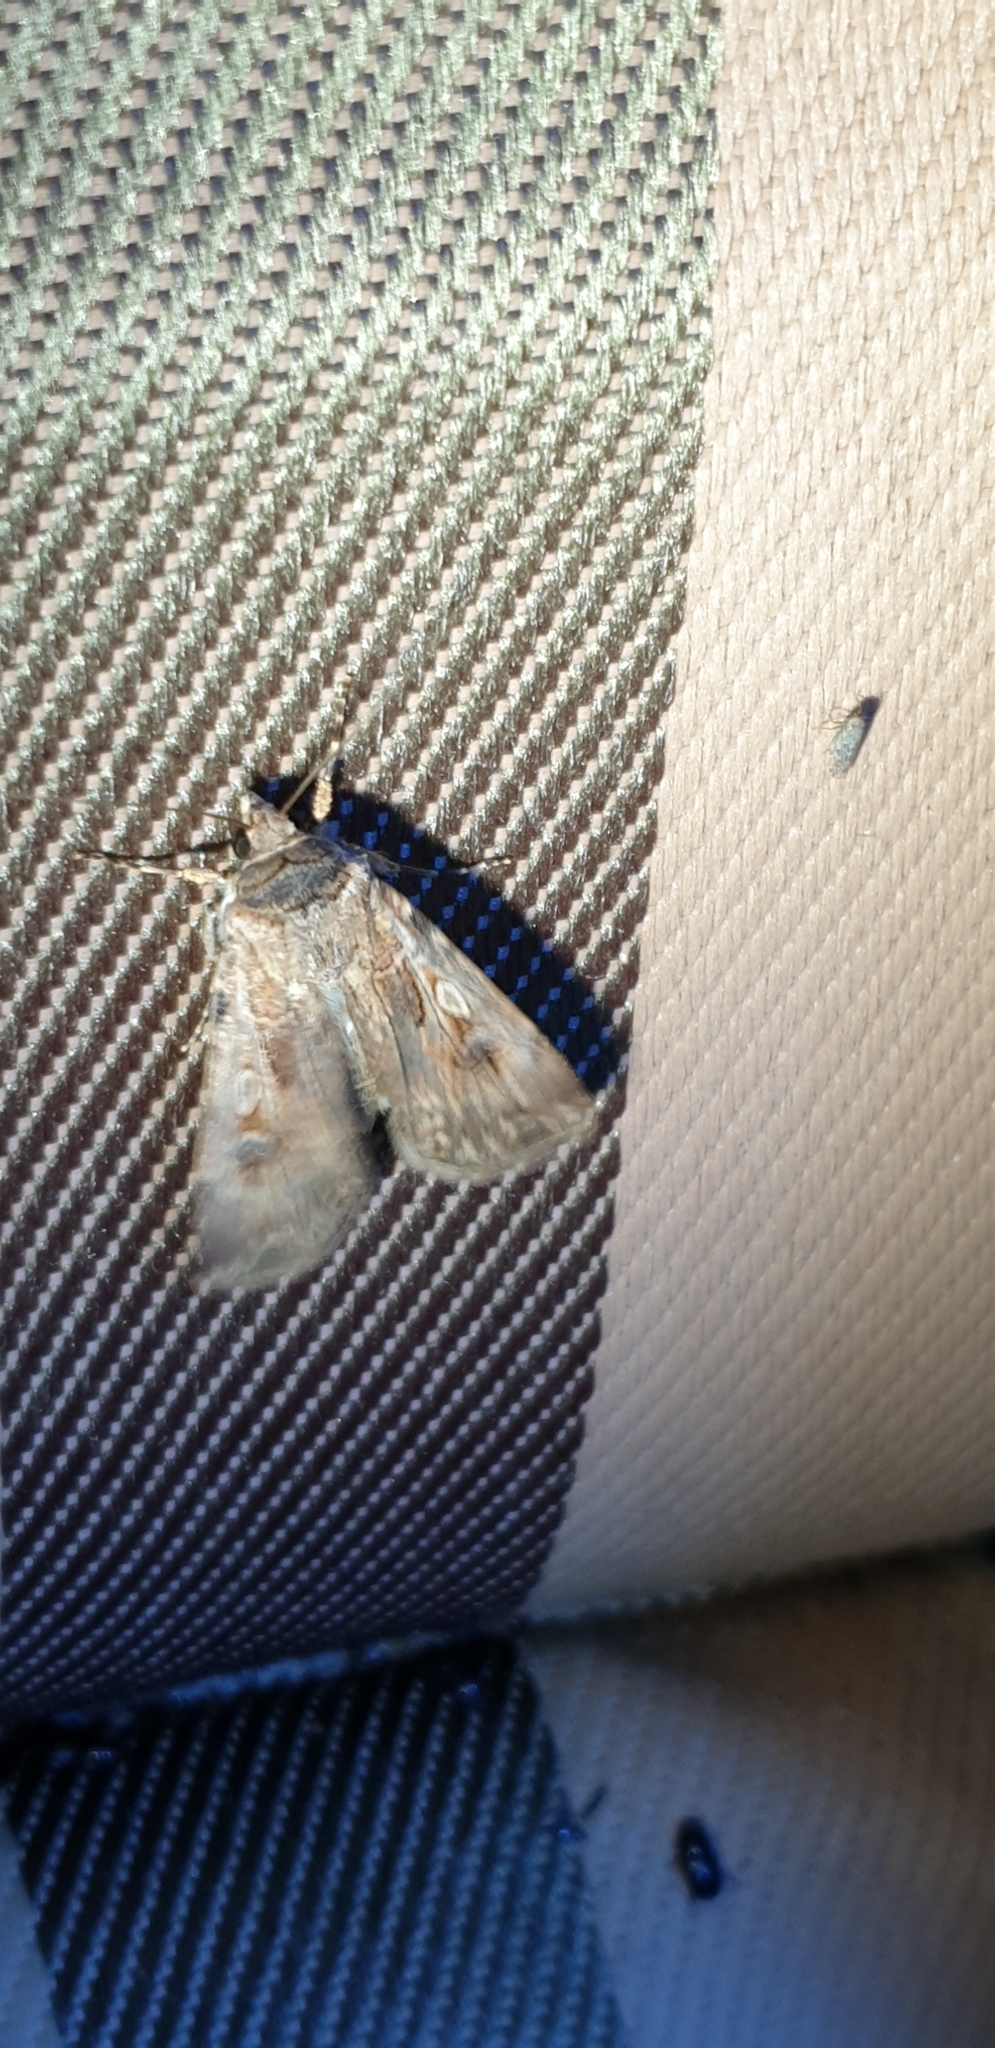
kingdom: Animalia
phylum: Arthropoda
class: Insecta
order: Lepidoptera
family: Noctuidae
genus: Agrotis
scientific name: Agrotis munda
